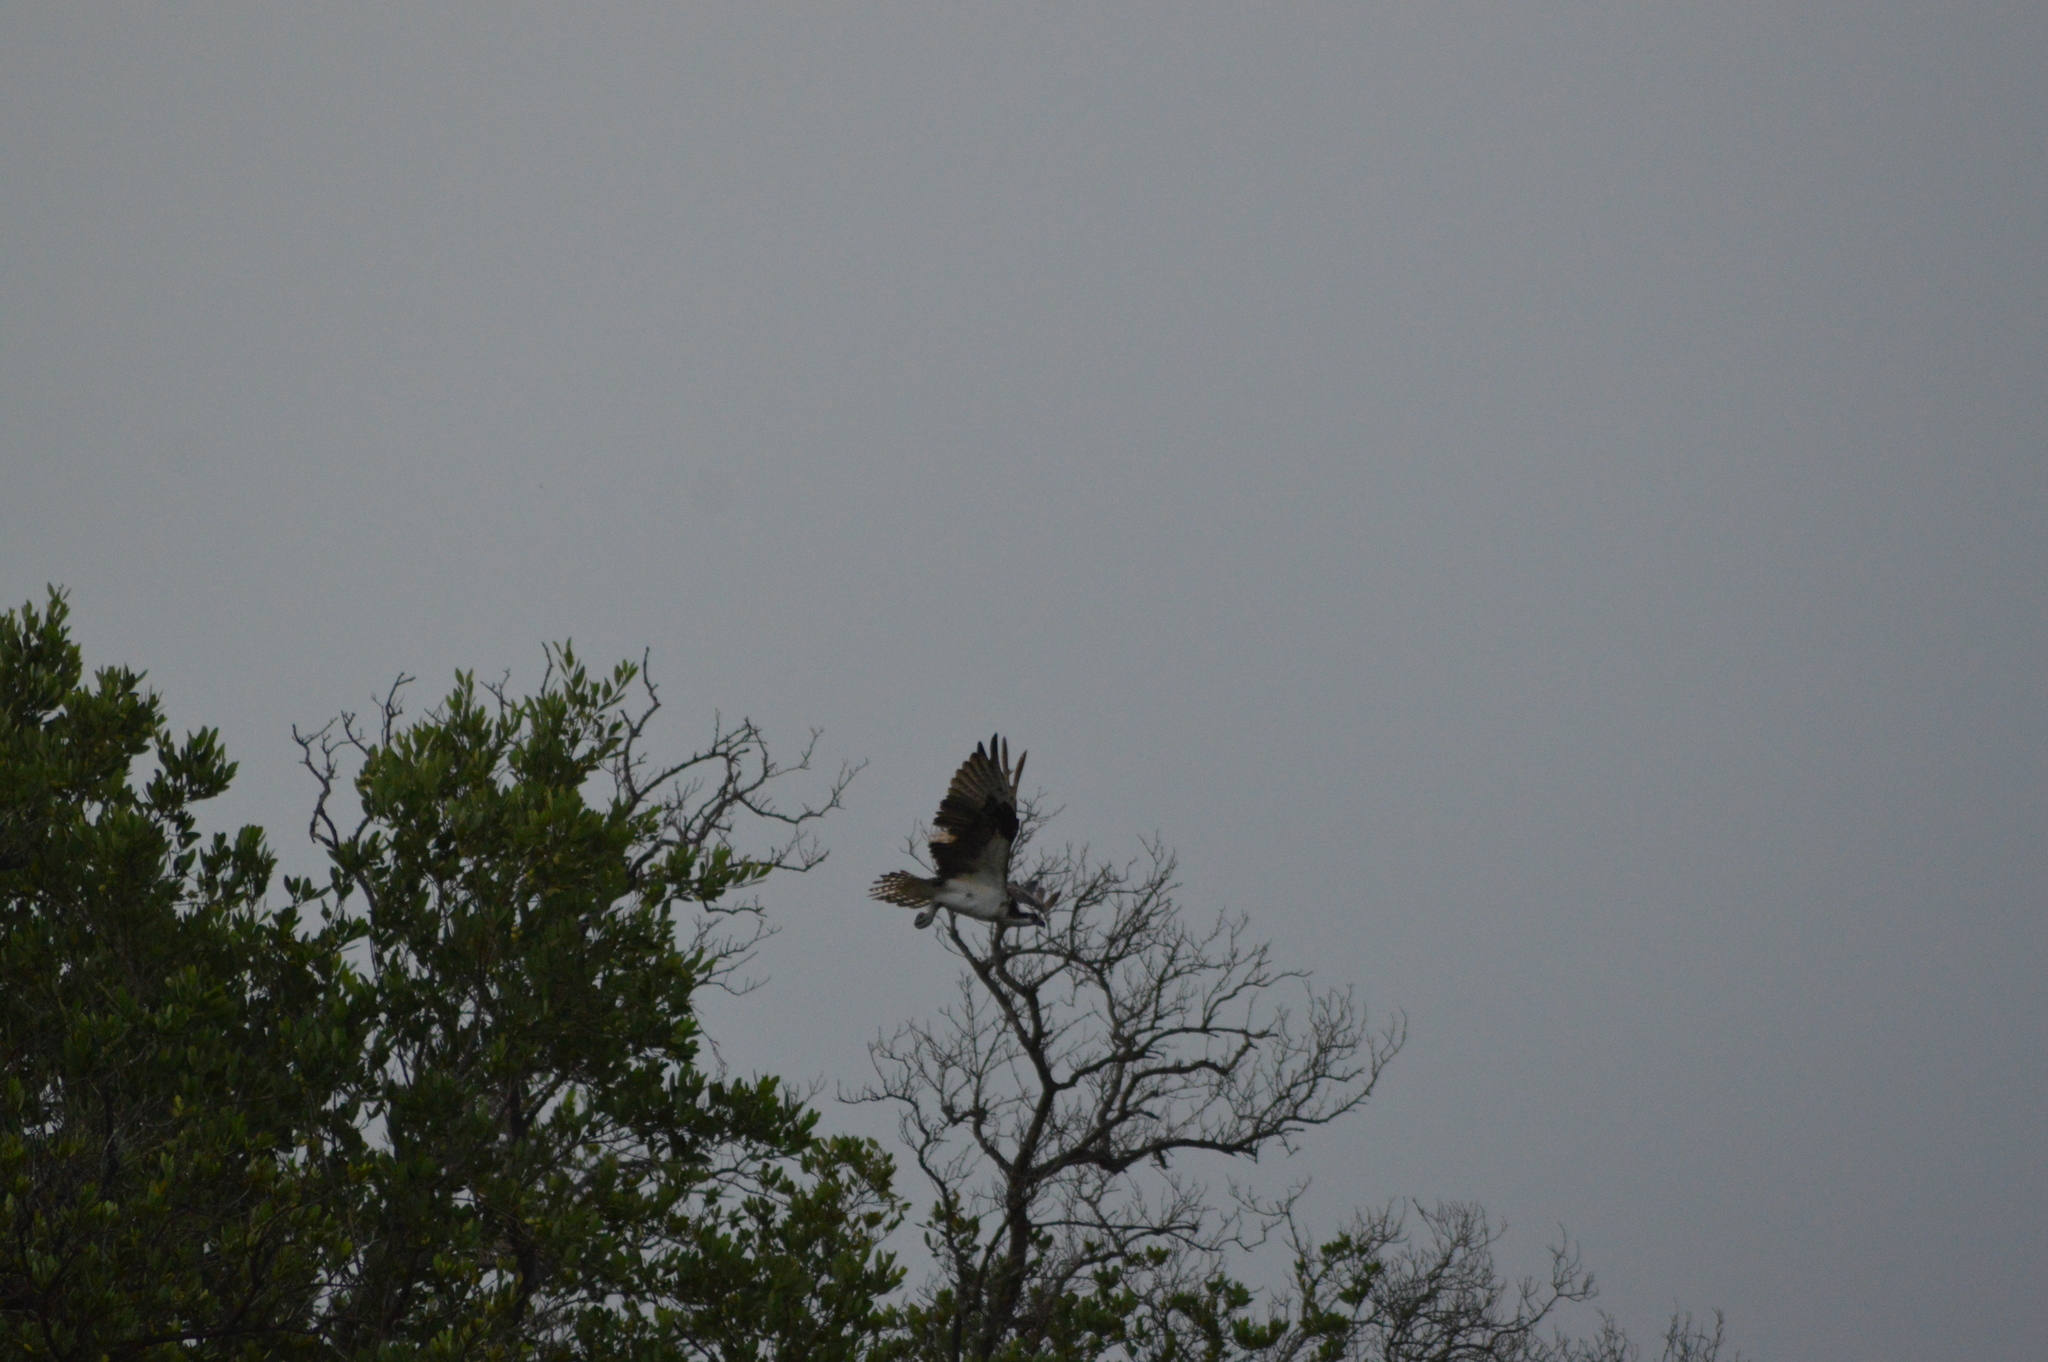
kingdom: Animalia
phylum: Chordata
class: Aves
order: Accipitriformes
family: Pandionidae
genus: Pandion
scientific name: Pandion haliaetus
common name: Osprey
